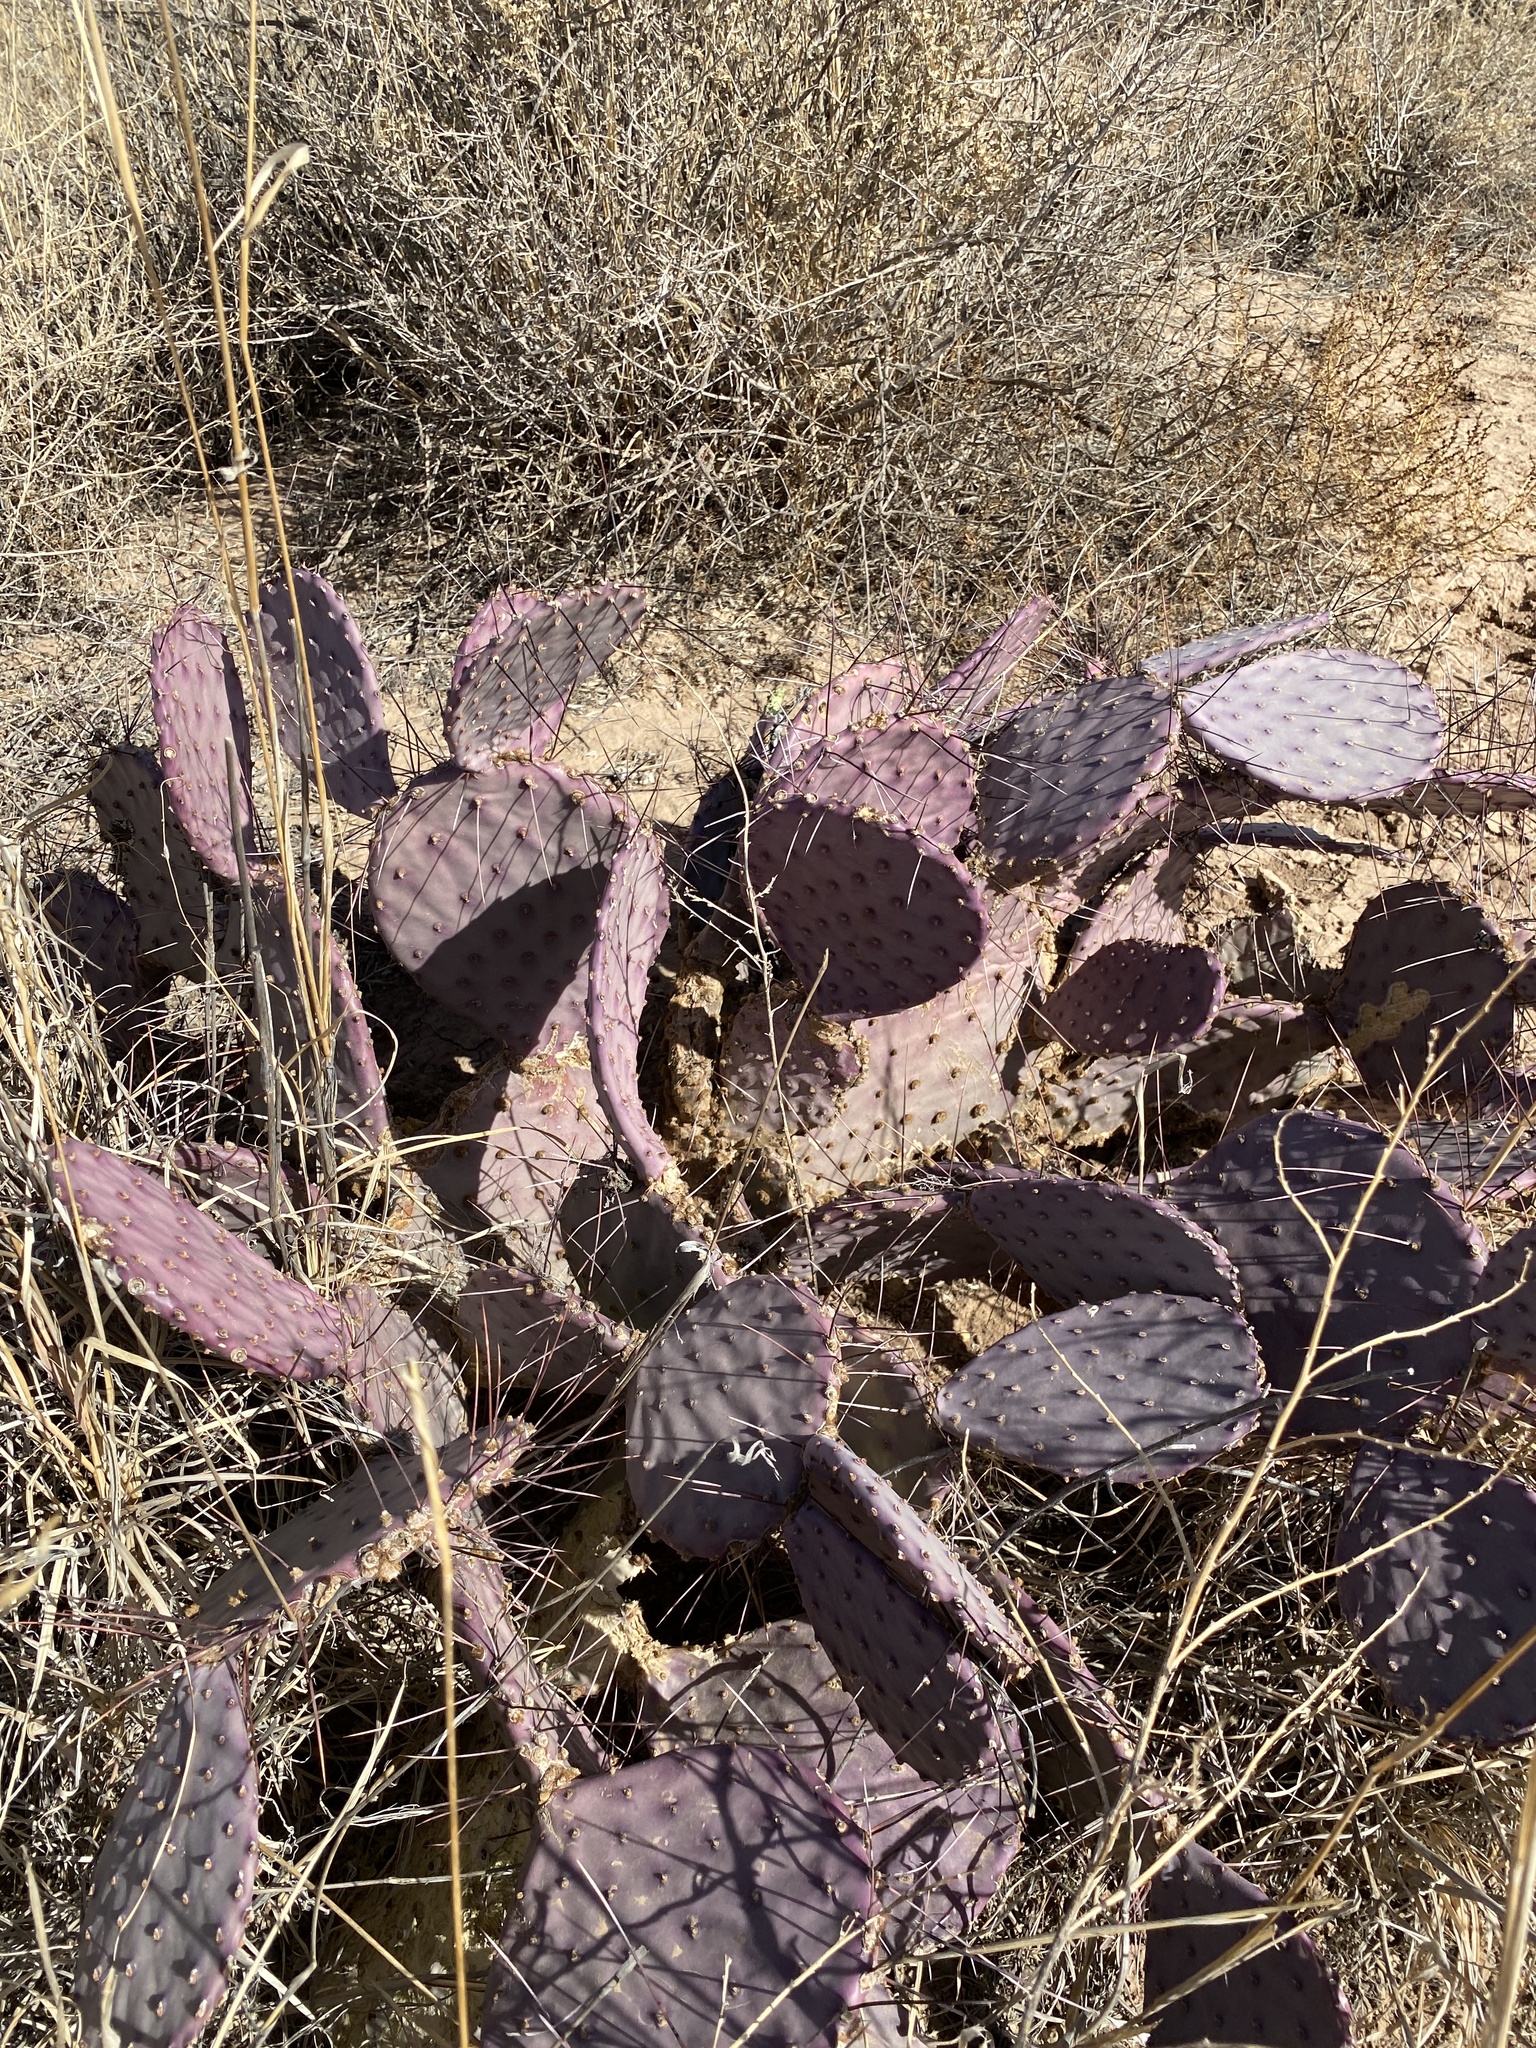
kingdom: Plantae
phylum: Tracheophyta
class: Magnoliopsida
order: Caryophyllales
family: Cactaceae
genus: Opuntia
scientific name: Opuntia macrocentra
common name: Purple prickly-pear
